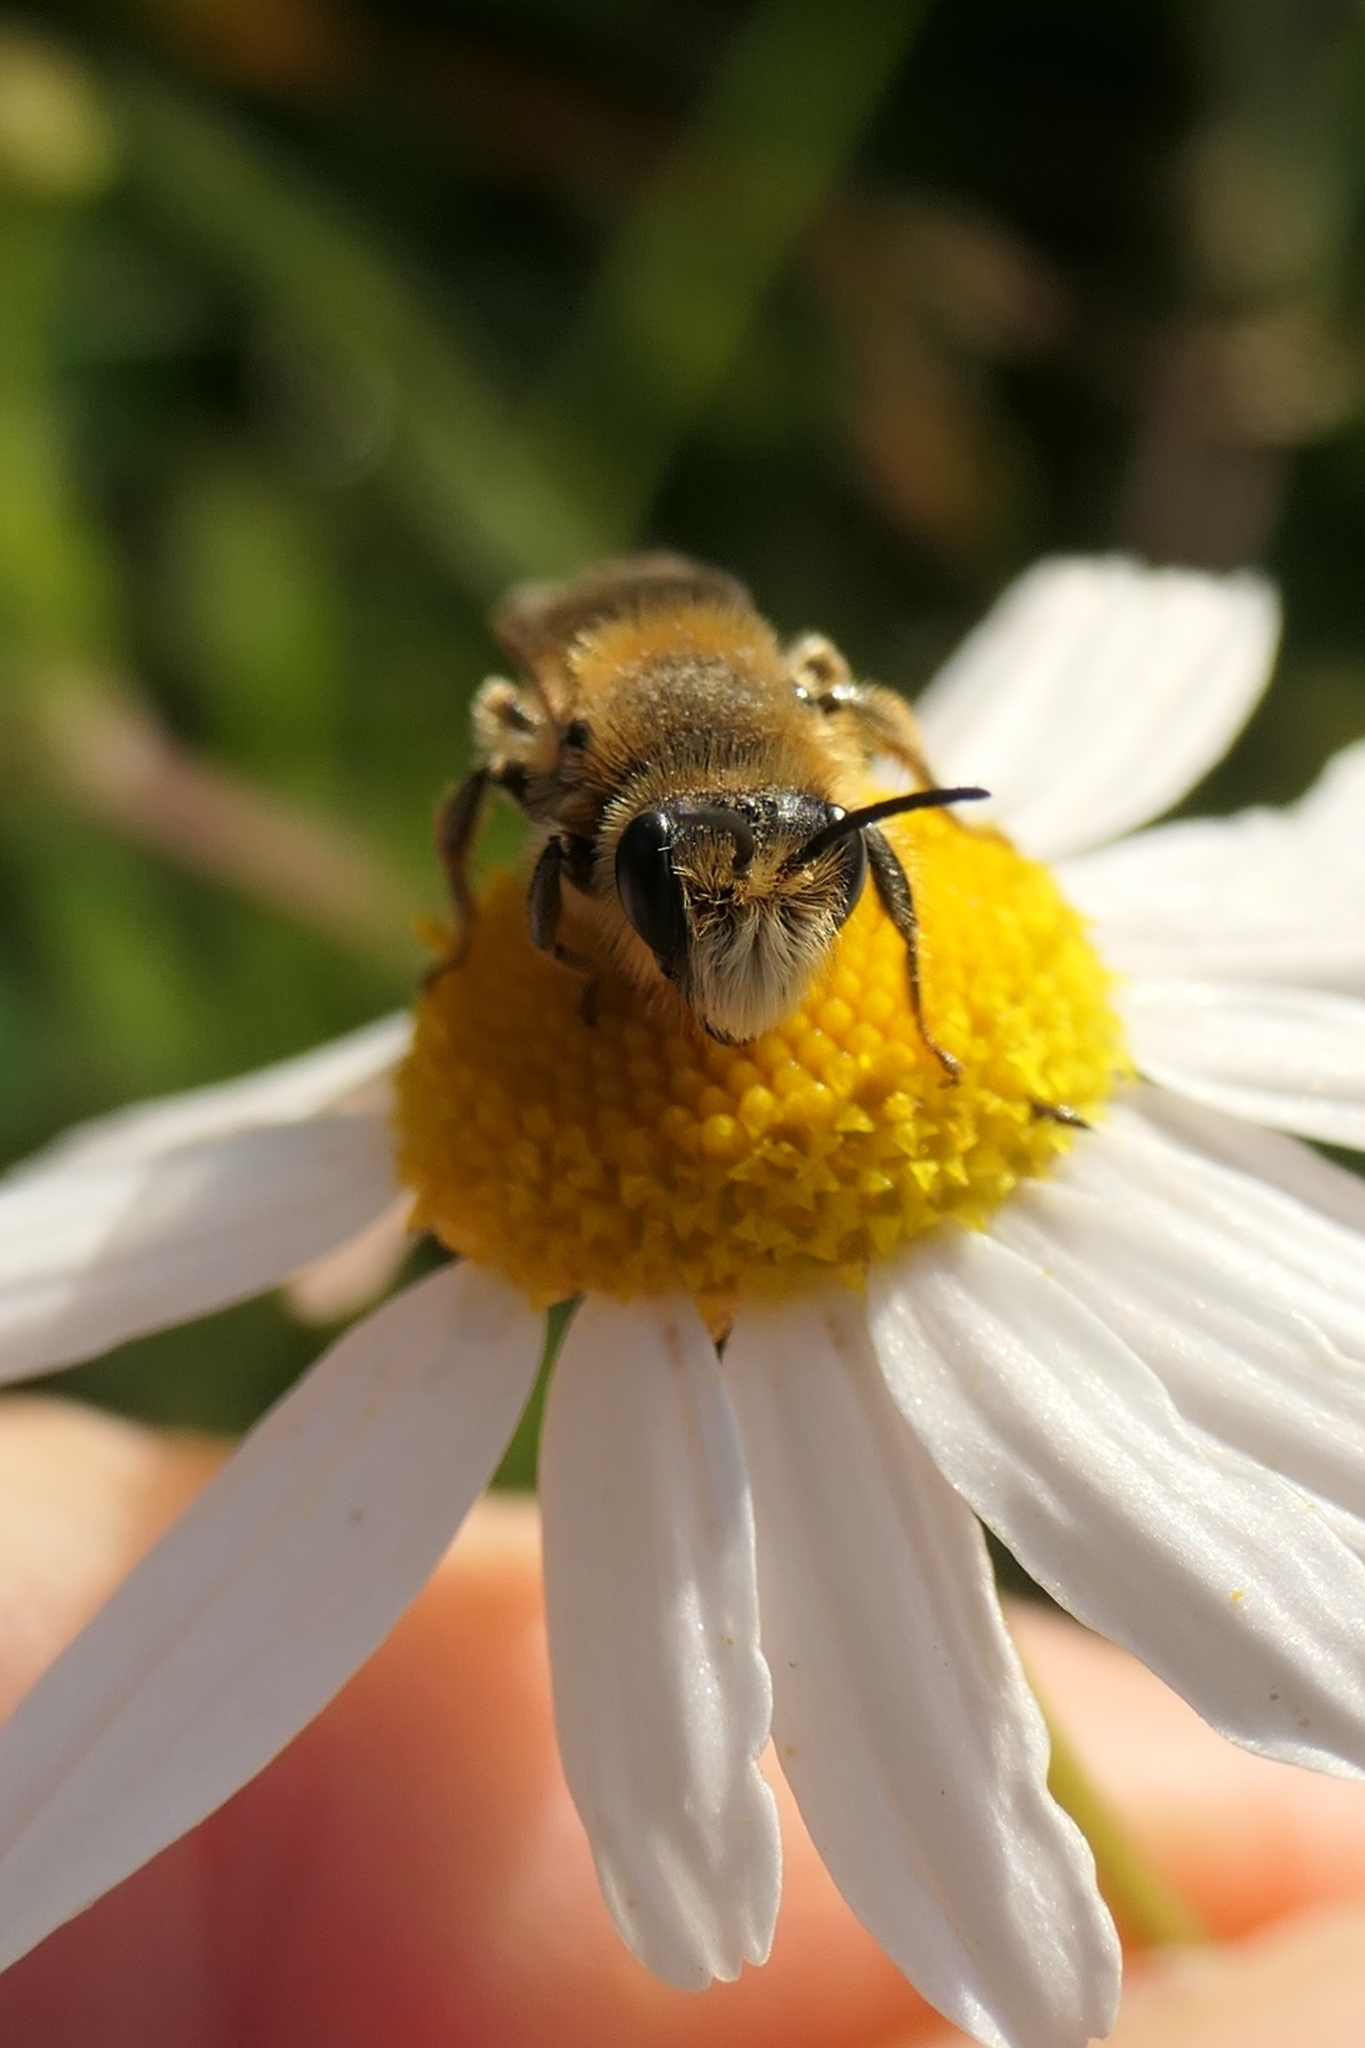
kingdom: Animalia
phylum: Arthropoda
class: Insecta
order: Hymenoptera
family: Colletidae
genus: Leioproctus
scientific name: Leioproctus fulvescens
